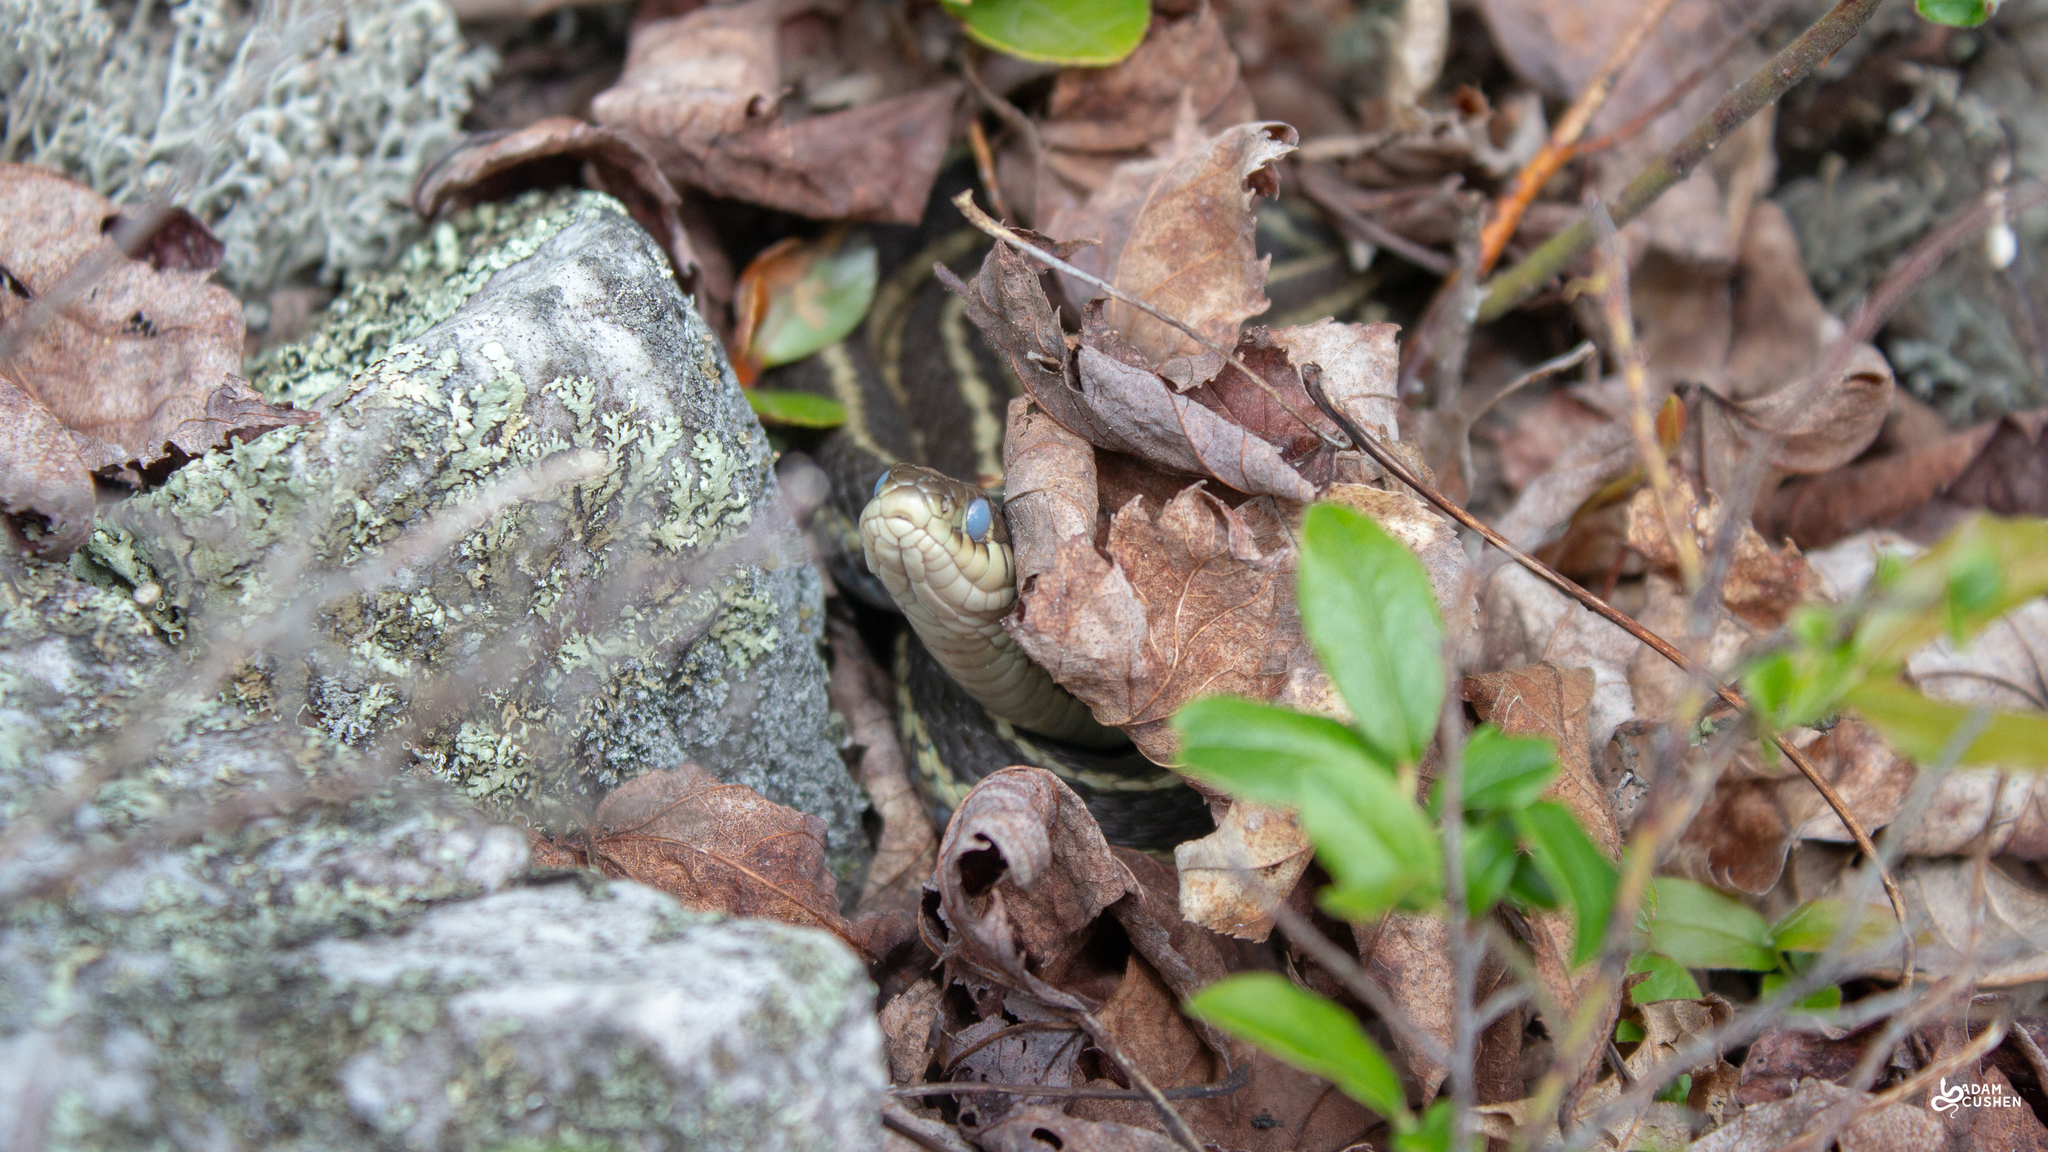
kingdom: Animalia
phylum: Chordata
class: Squamata
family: Colubridae
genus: Thamnophis
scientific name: Thamnophis sirtalis
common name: Common garter snake
